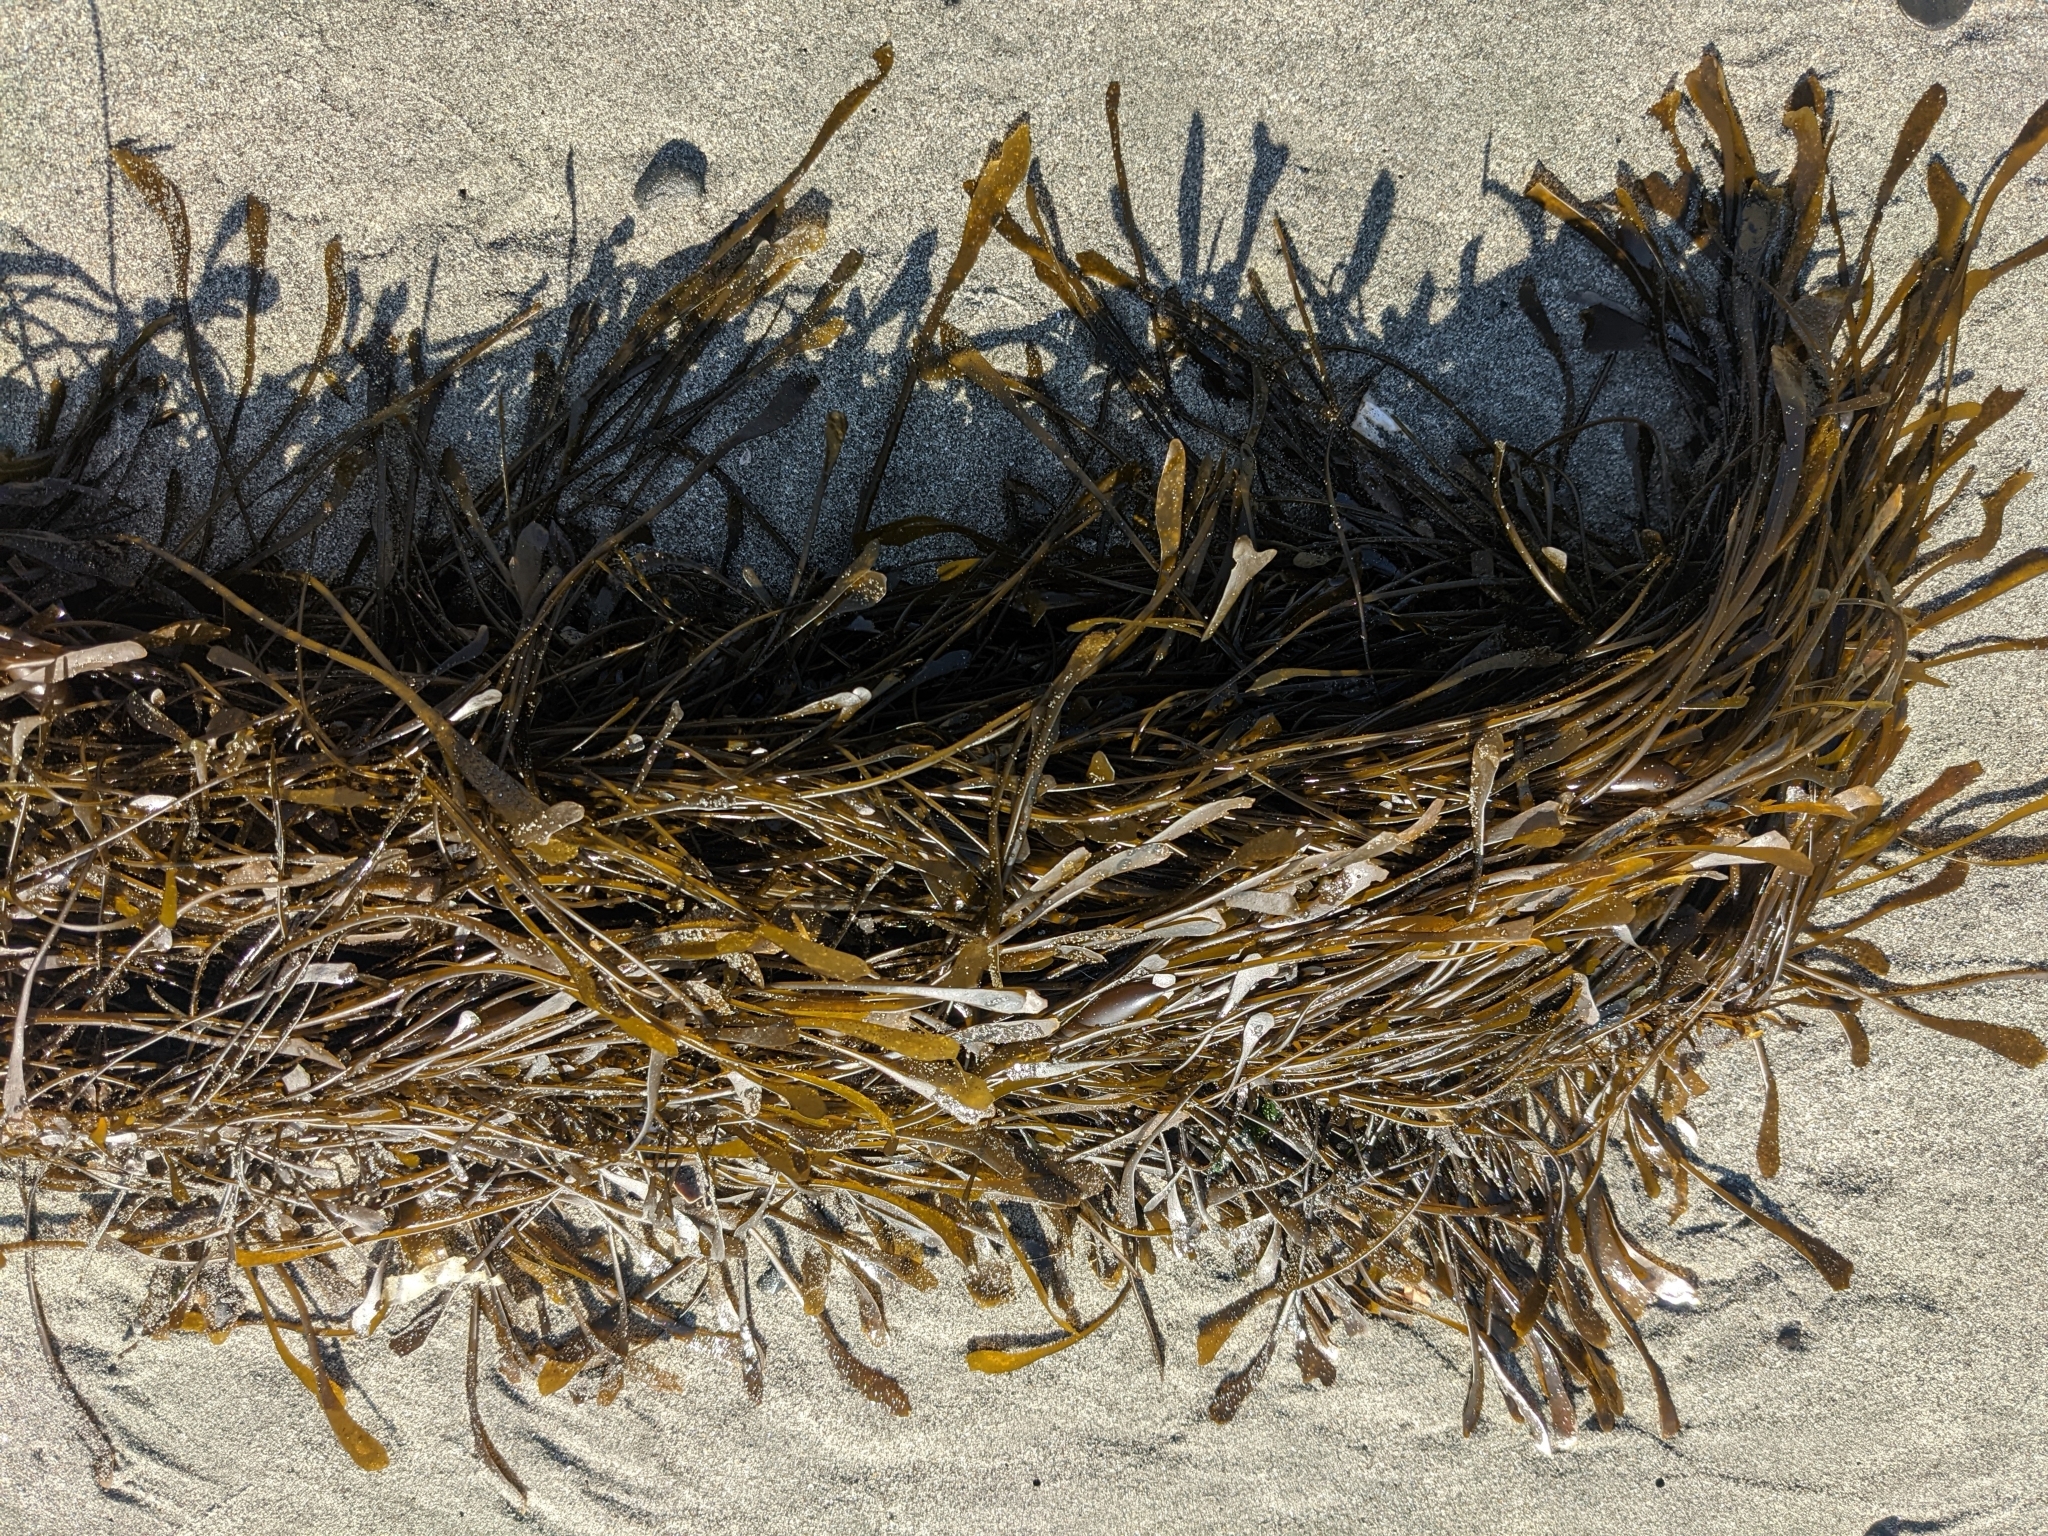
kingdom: Chromista
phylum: Ochrophyta
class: Phaeophyceae
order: Laminariales
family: Lessoniaceae
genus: Egregia
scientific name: Egregia menziesii
